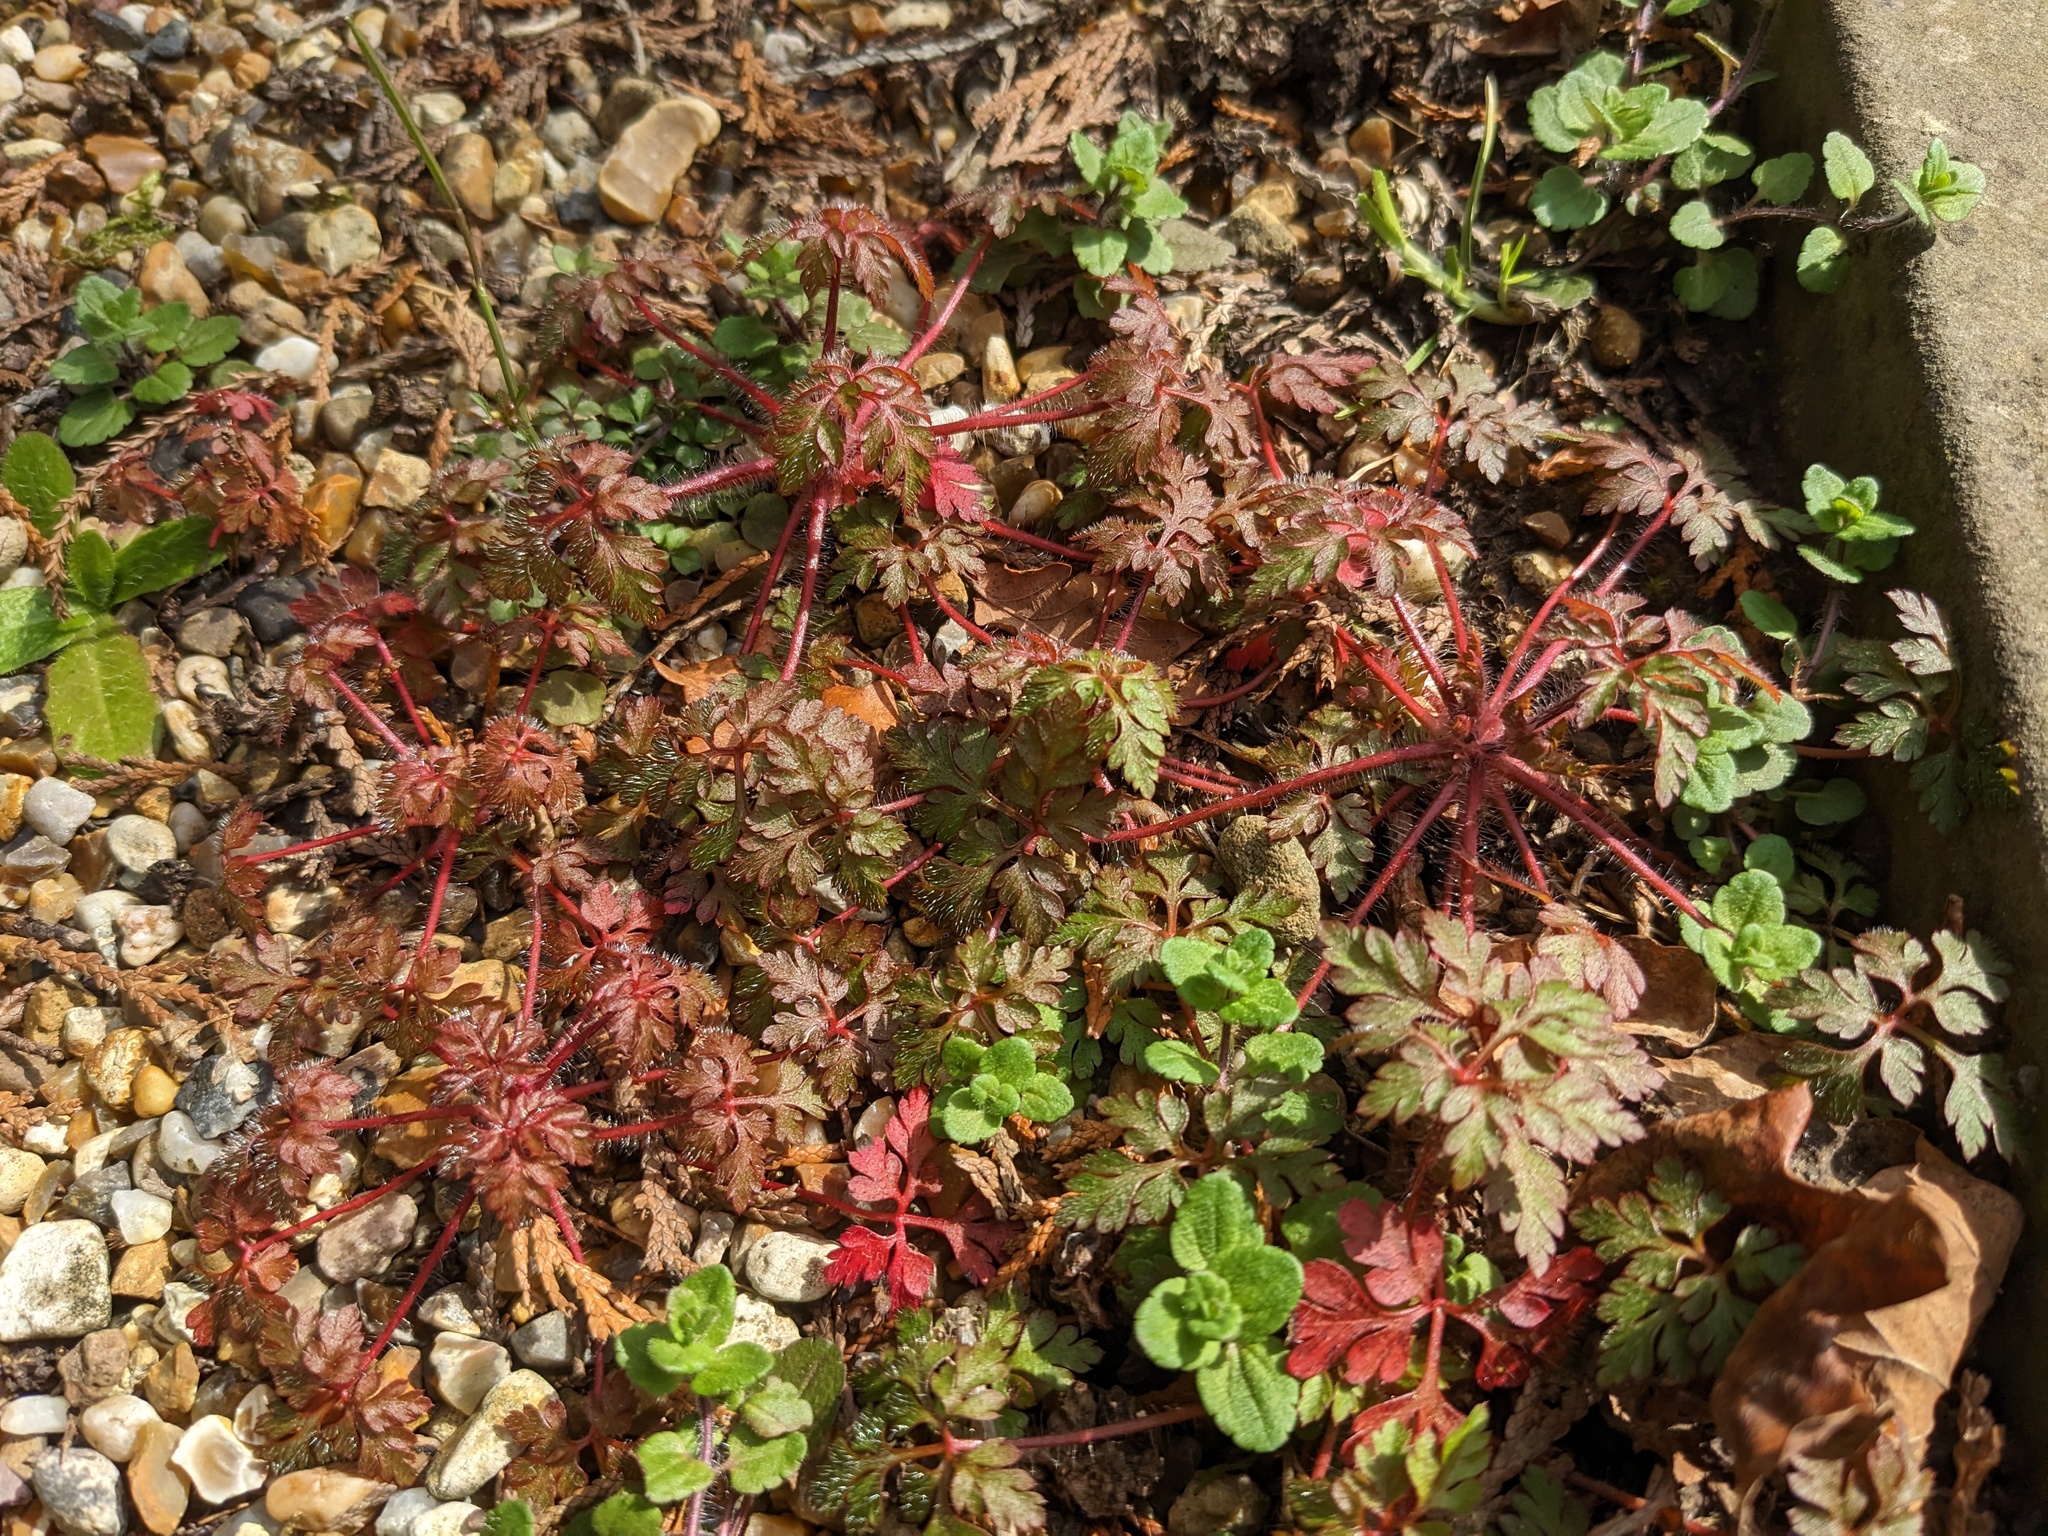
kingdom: Plantae
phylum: Tracheophyta
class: Magnoliopsida
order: Geraniales
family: Geraniaceae
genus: Geranium
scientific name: Geranium robertianum
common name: Herb-robert
